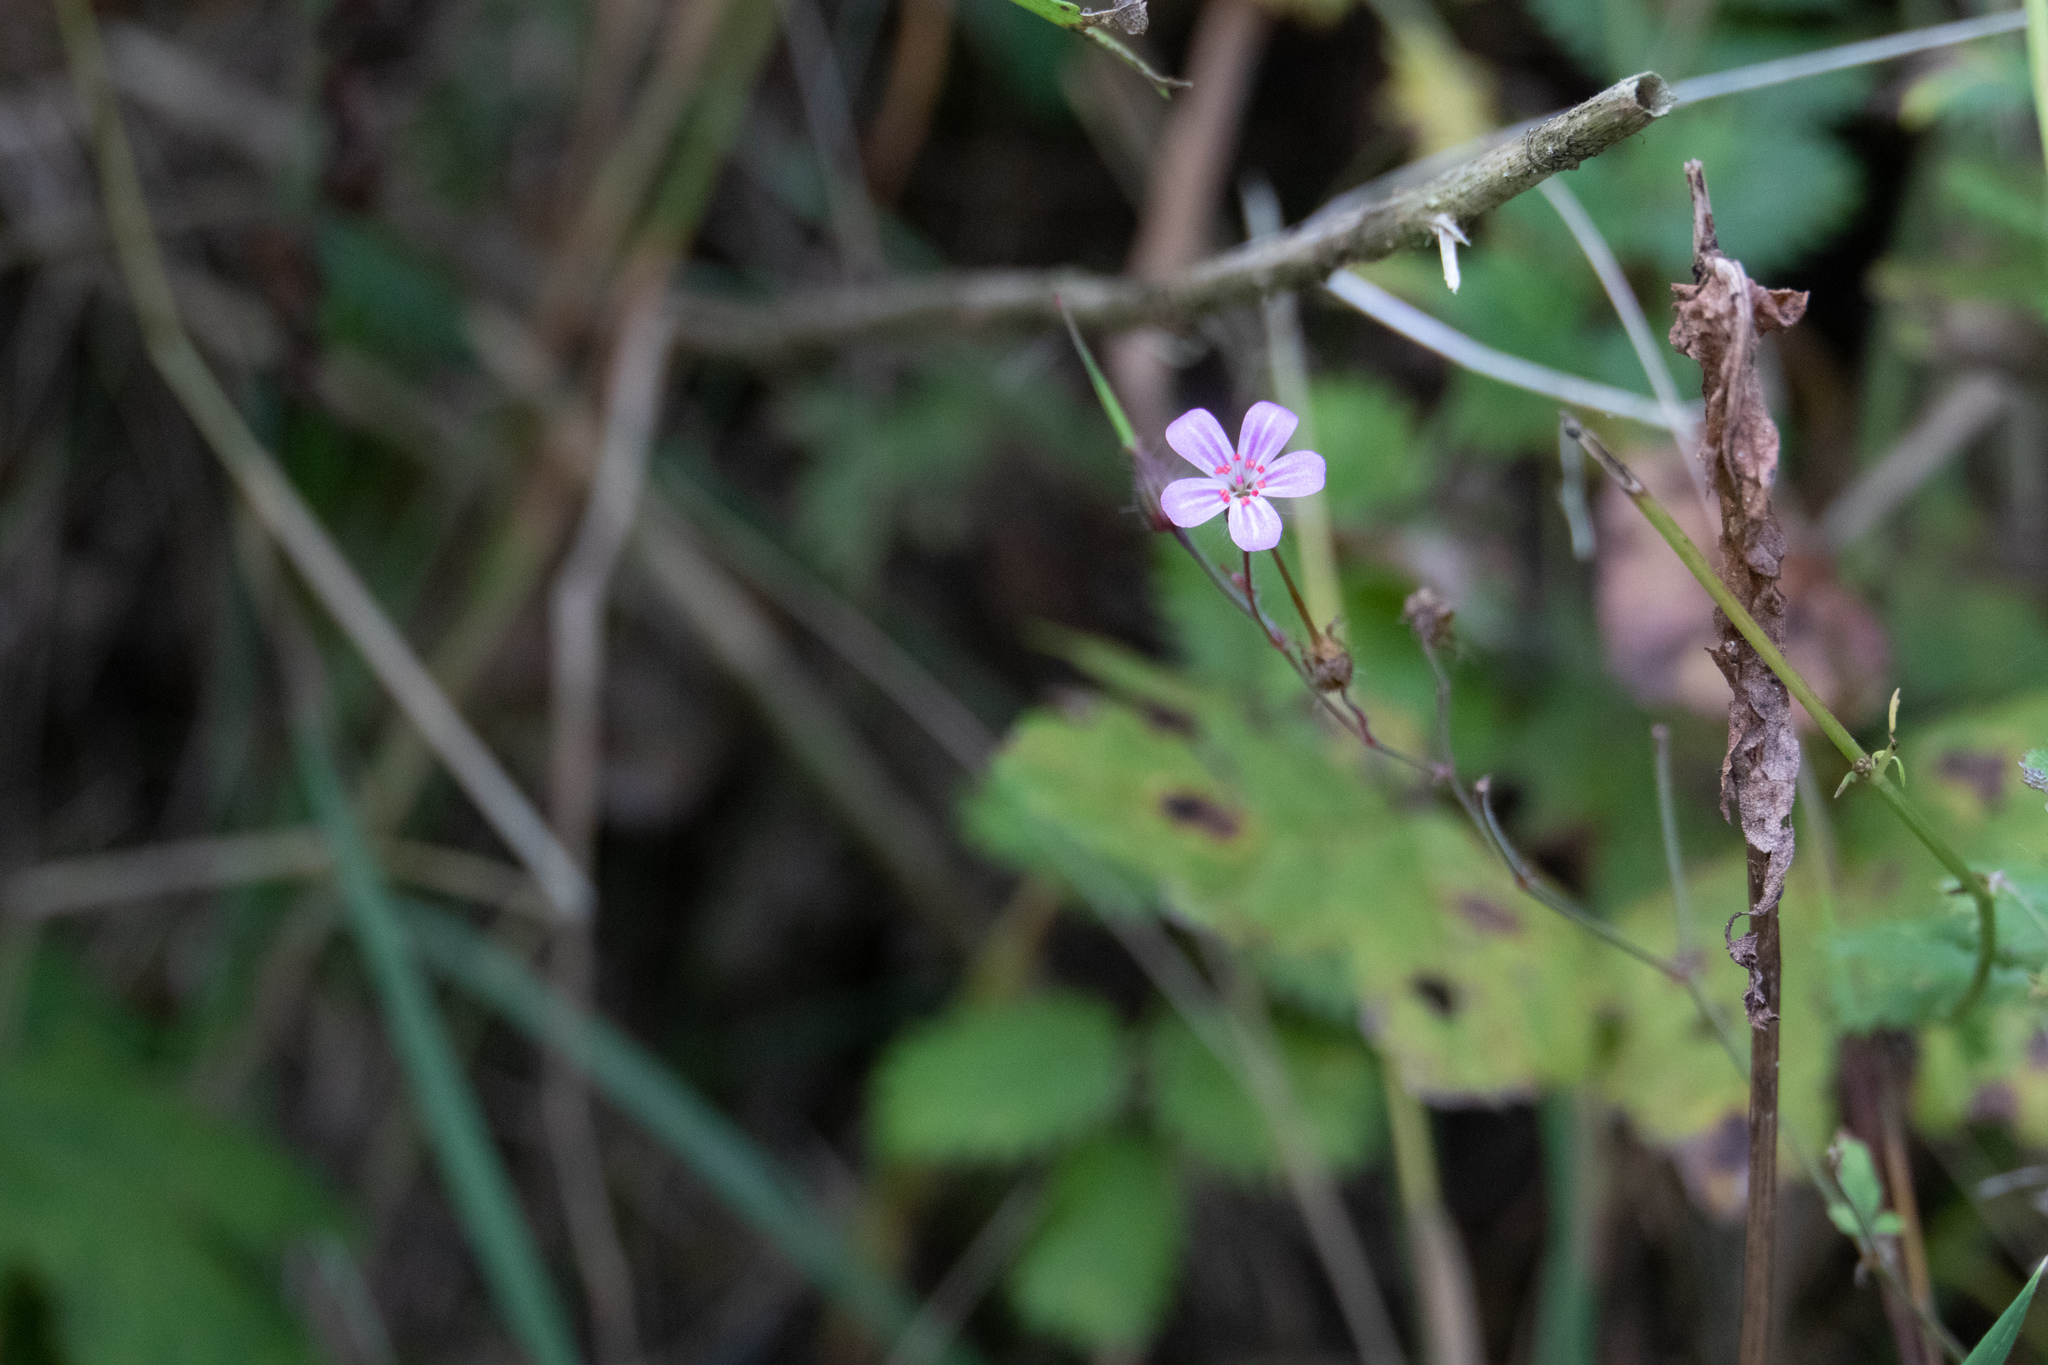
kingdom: Plantae
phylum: Tracheophyta
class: Magnoliopsida
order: Geraniales
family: Geraniaceae
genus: Geranium
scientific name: Geranium robertianum
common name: Herb-robert
